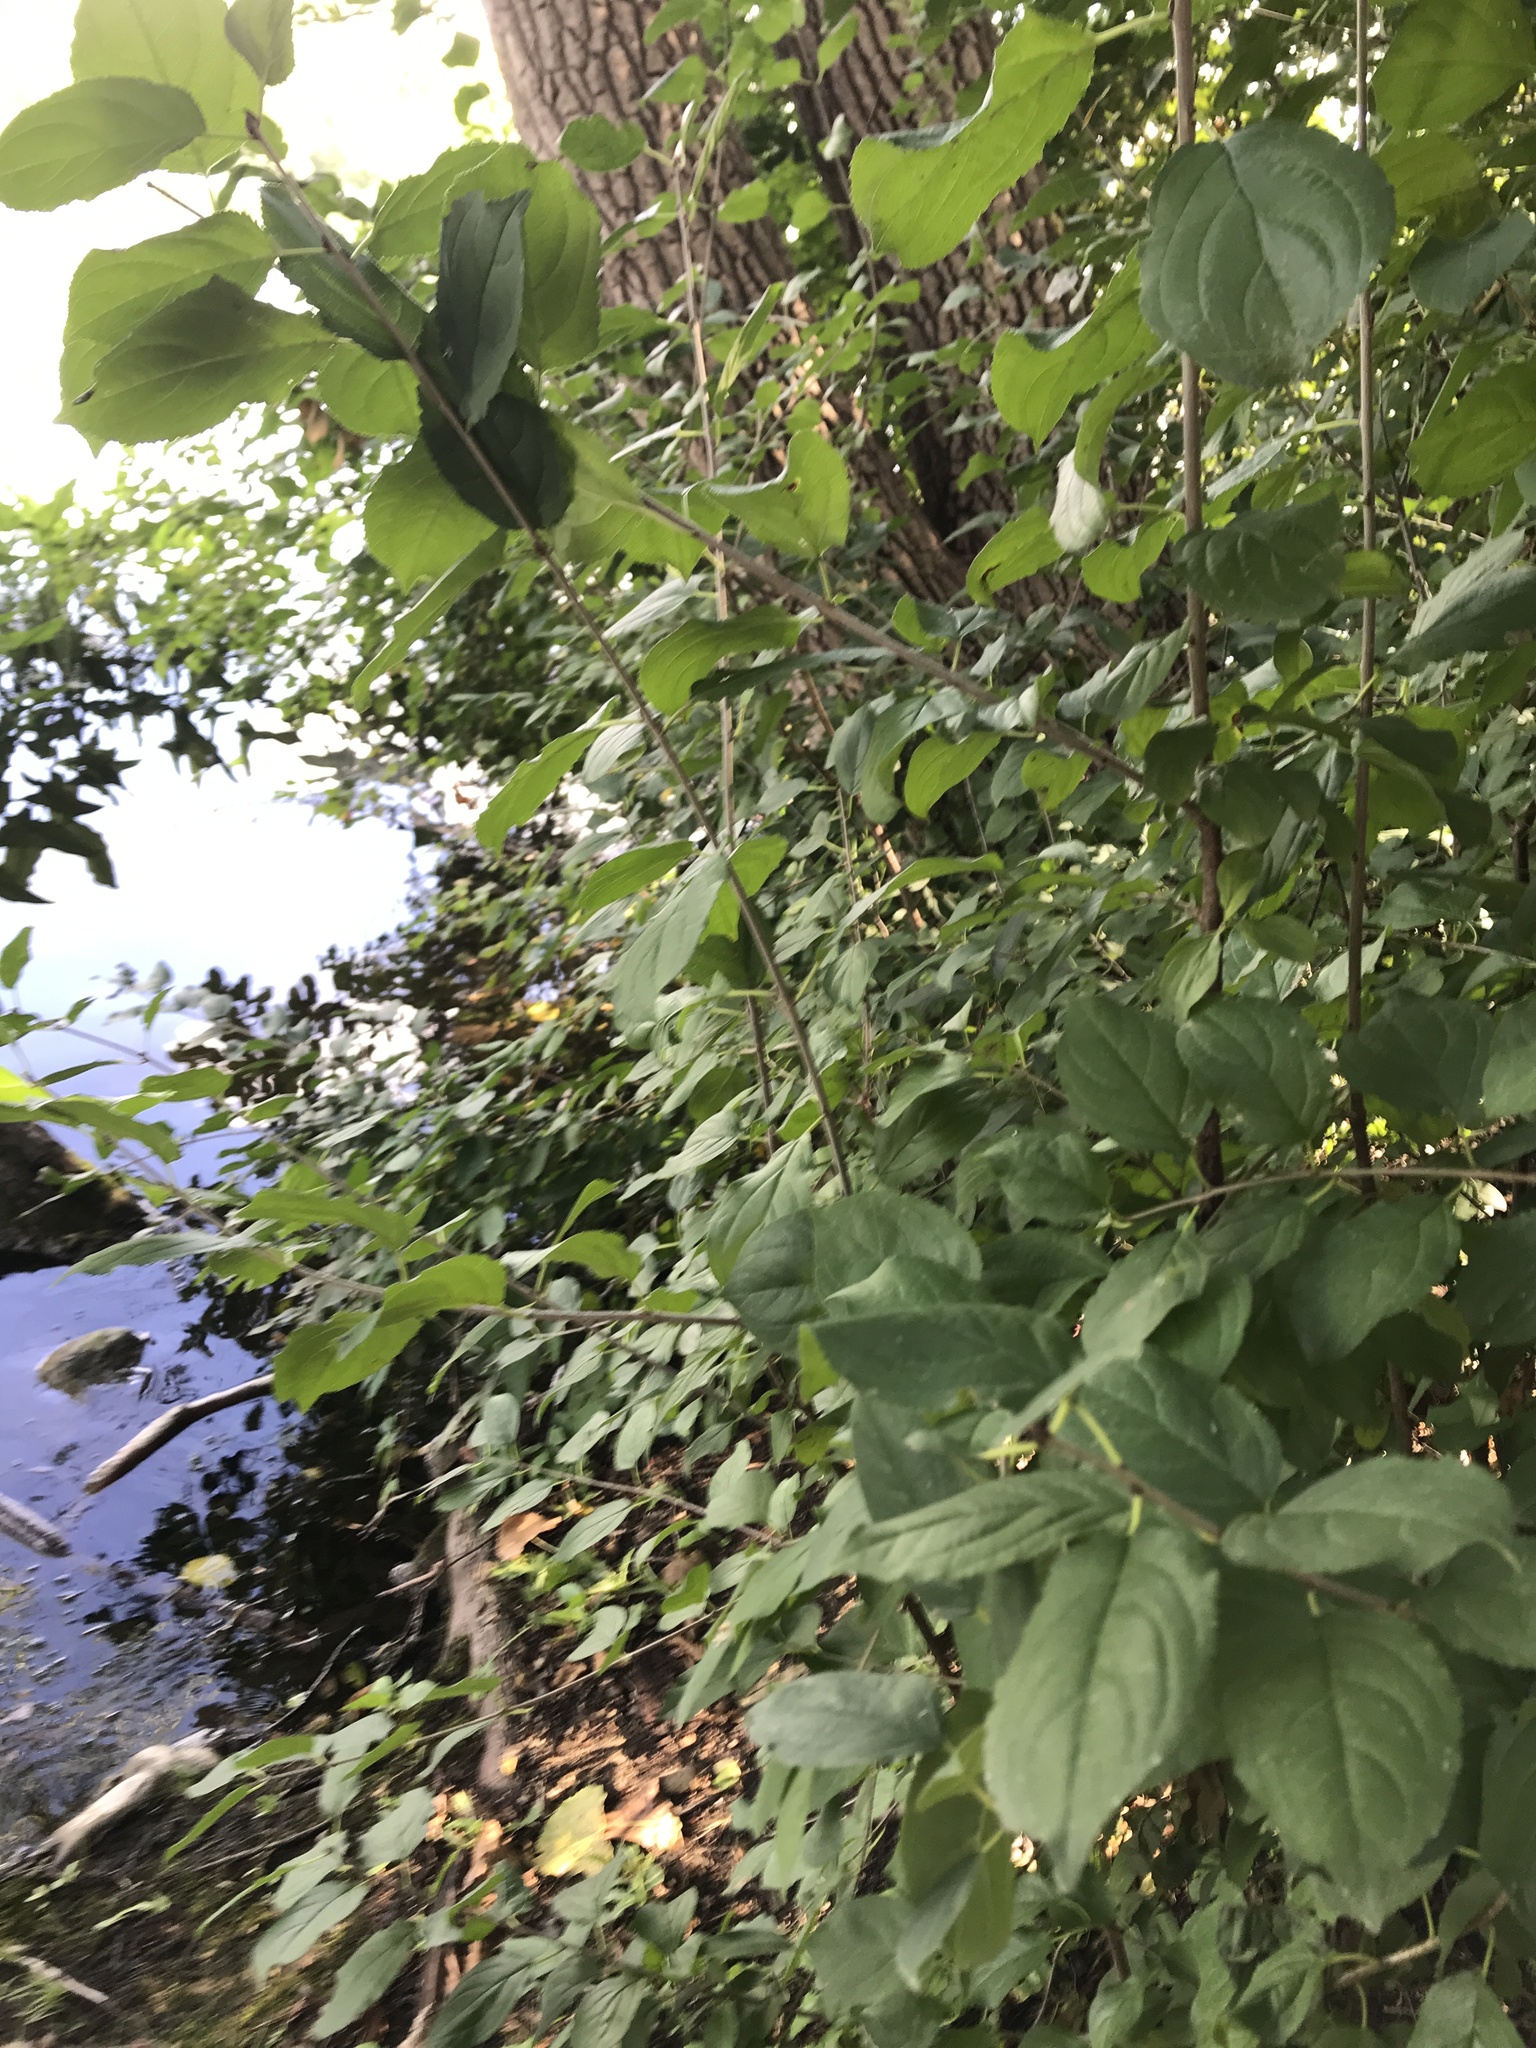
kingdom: Plantae
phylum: Tracheophyta
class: Magnoliopsida
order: Rosales
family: Rhamnaceae
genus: Rhamnus
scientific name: Rhamnus cathartica
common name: Common buckthorn
